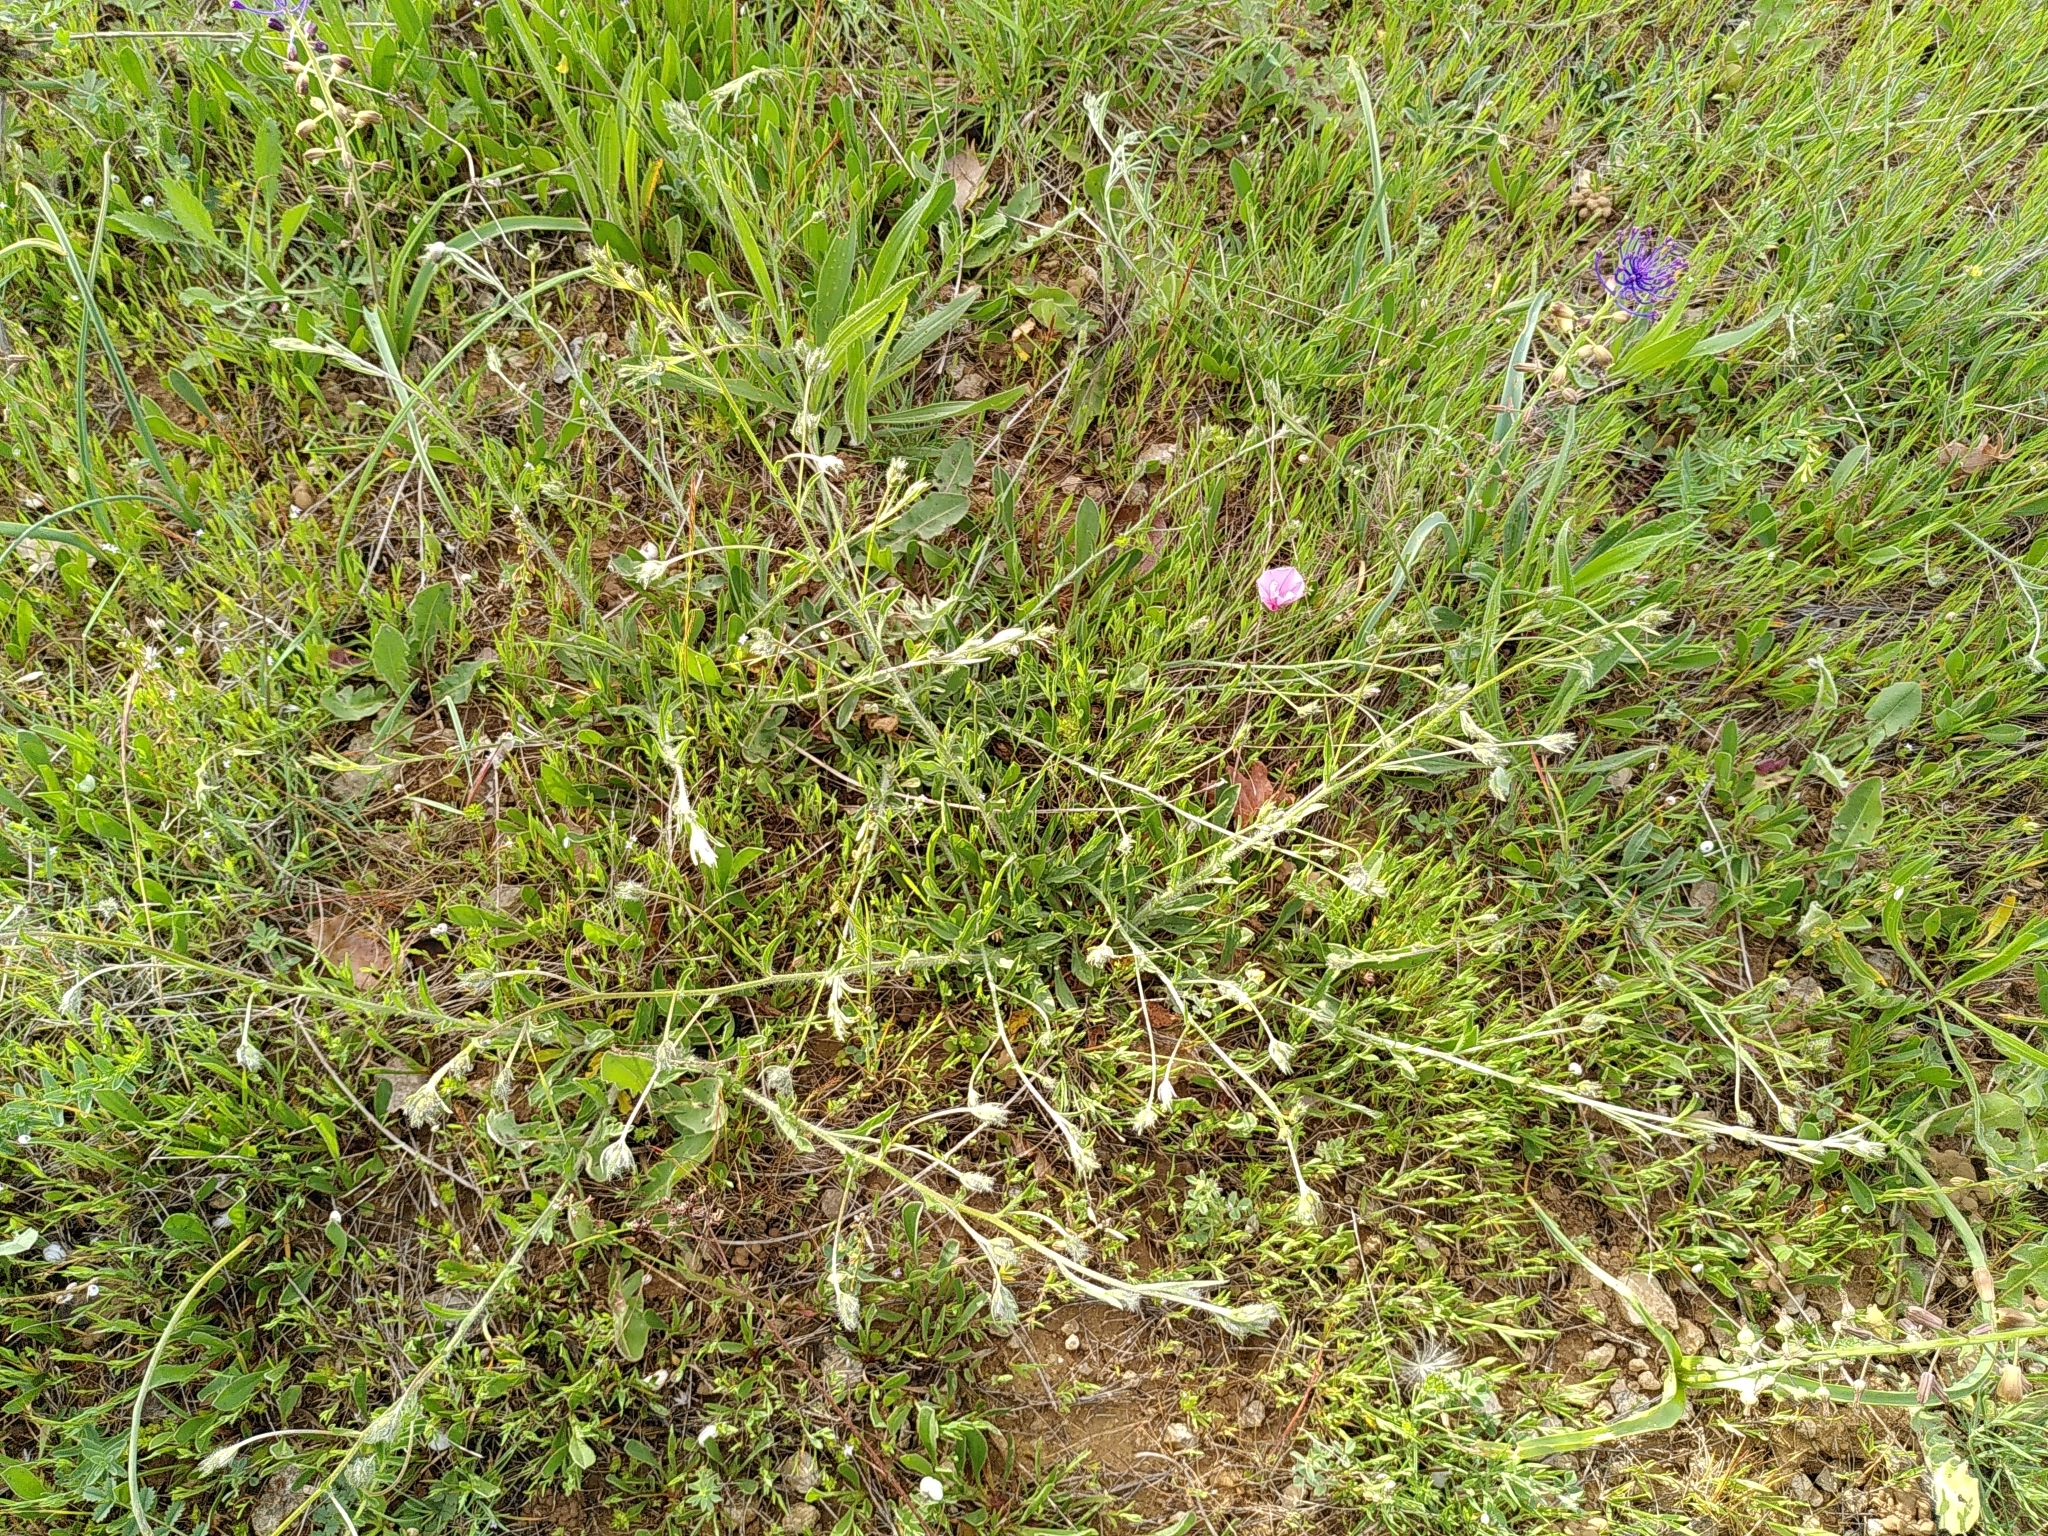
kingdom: Plantae
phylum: Tracheophyta
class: Magnoliopsida
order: Solanales
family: Convolvulaceae
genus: Convolvulus
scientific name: Convolvulus cantabrica
